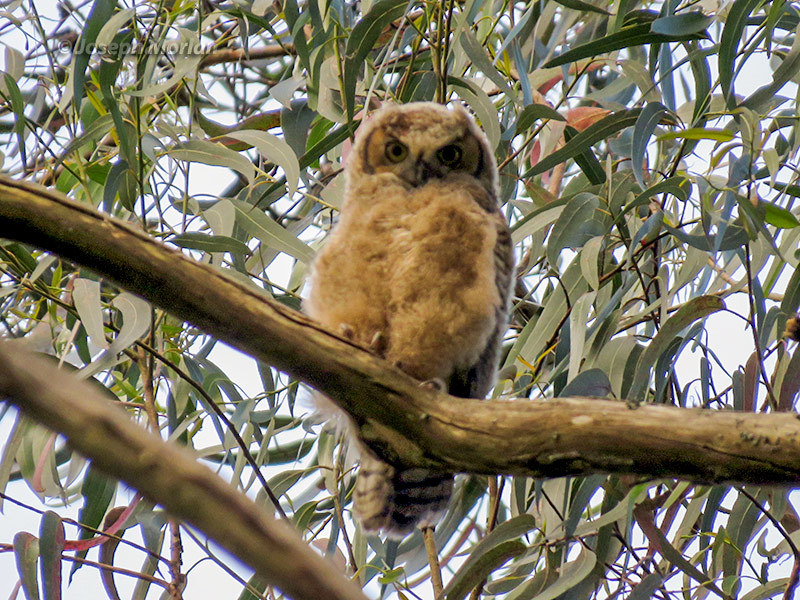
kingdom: Animalia
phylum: Chordata
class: Aves
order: Strigiformes
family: Strigidae
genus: Bubo
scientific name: Bubo virginianus
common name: Great horned owl
